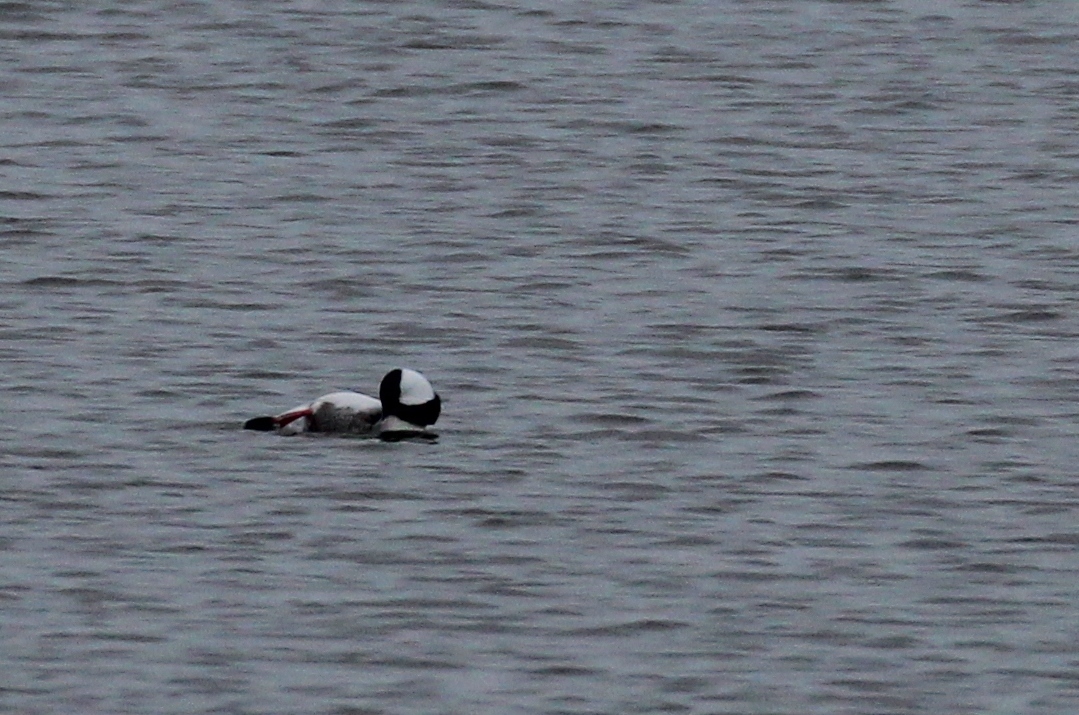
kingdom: Animalia
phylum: Chordata
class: Aves
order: Anseriformes
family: Anatidae
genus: Bucephala
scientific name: Bucephala albeola
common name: Bufflehead
